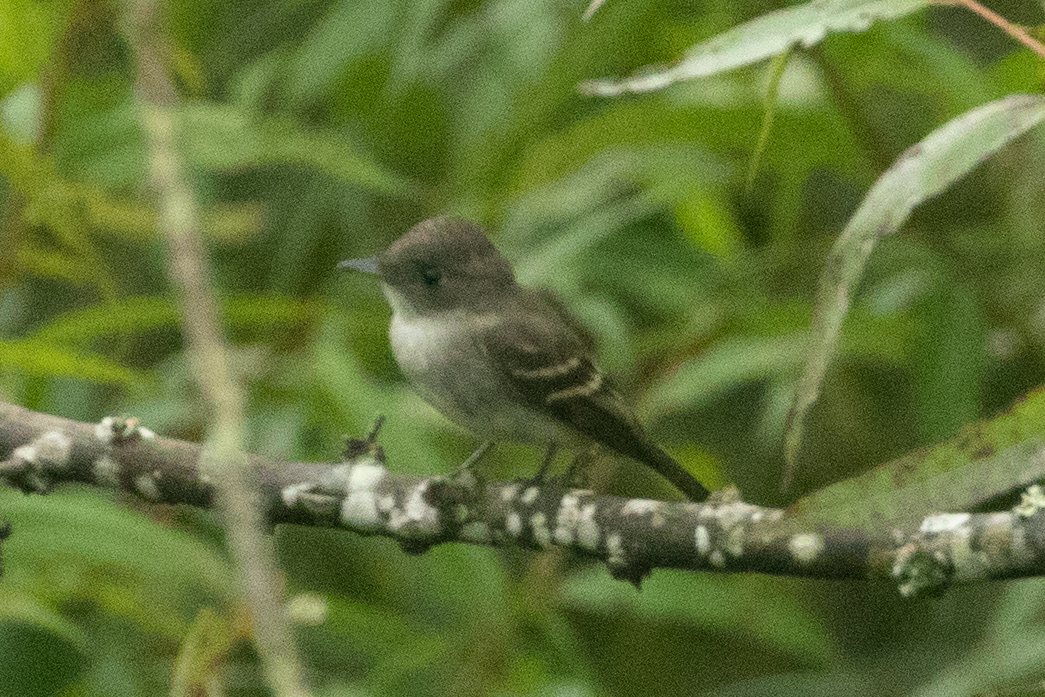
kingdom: Animalia
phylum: Chordata
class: Aves
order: Passeriformes
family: Tyrannidae
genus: Contopus
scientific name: Contopus virens
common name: Eastern wood-pewee
